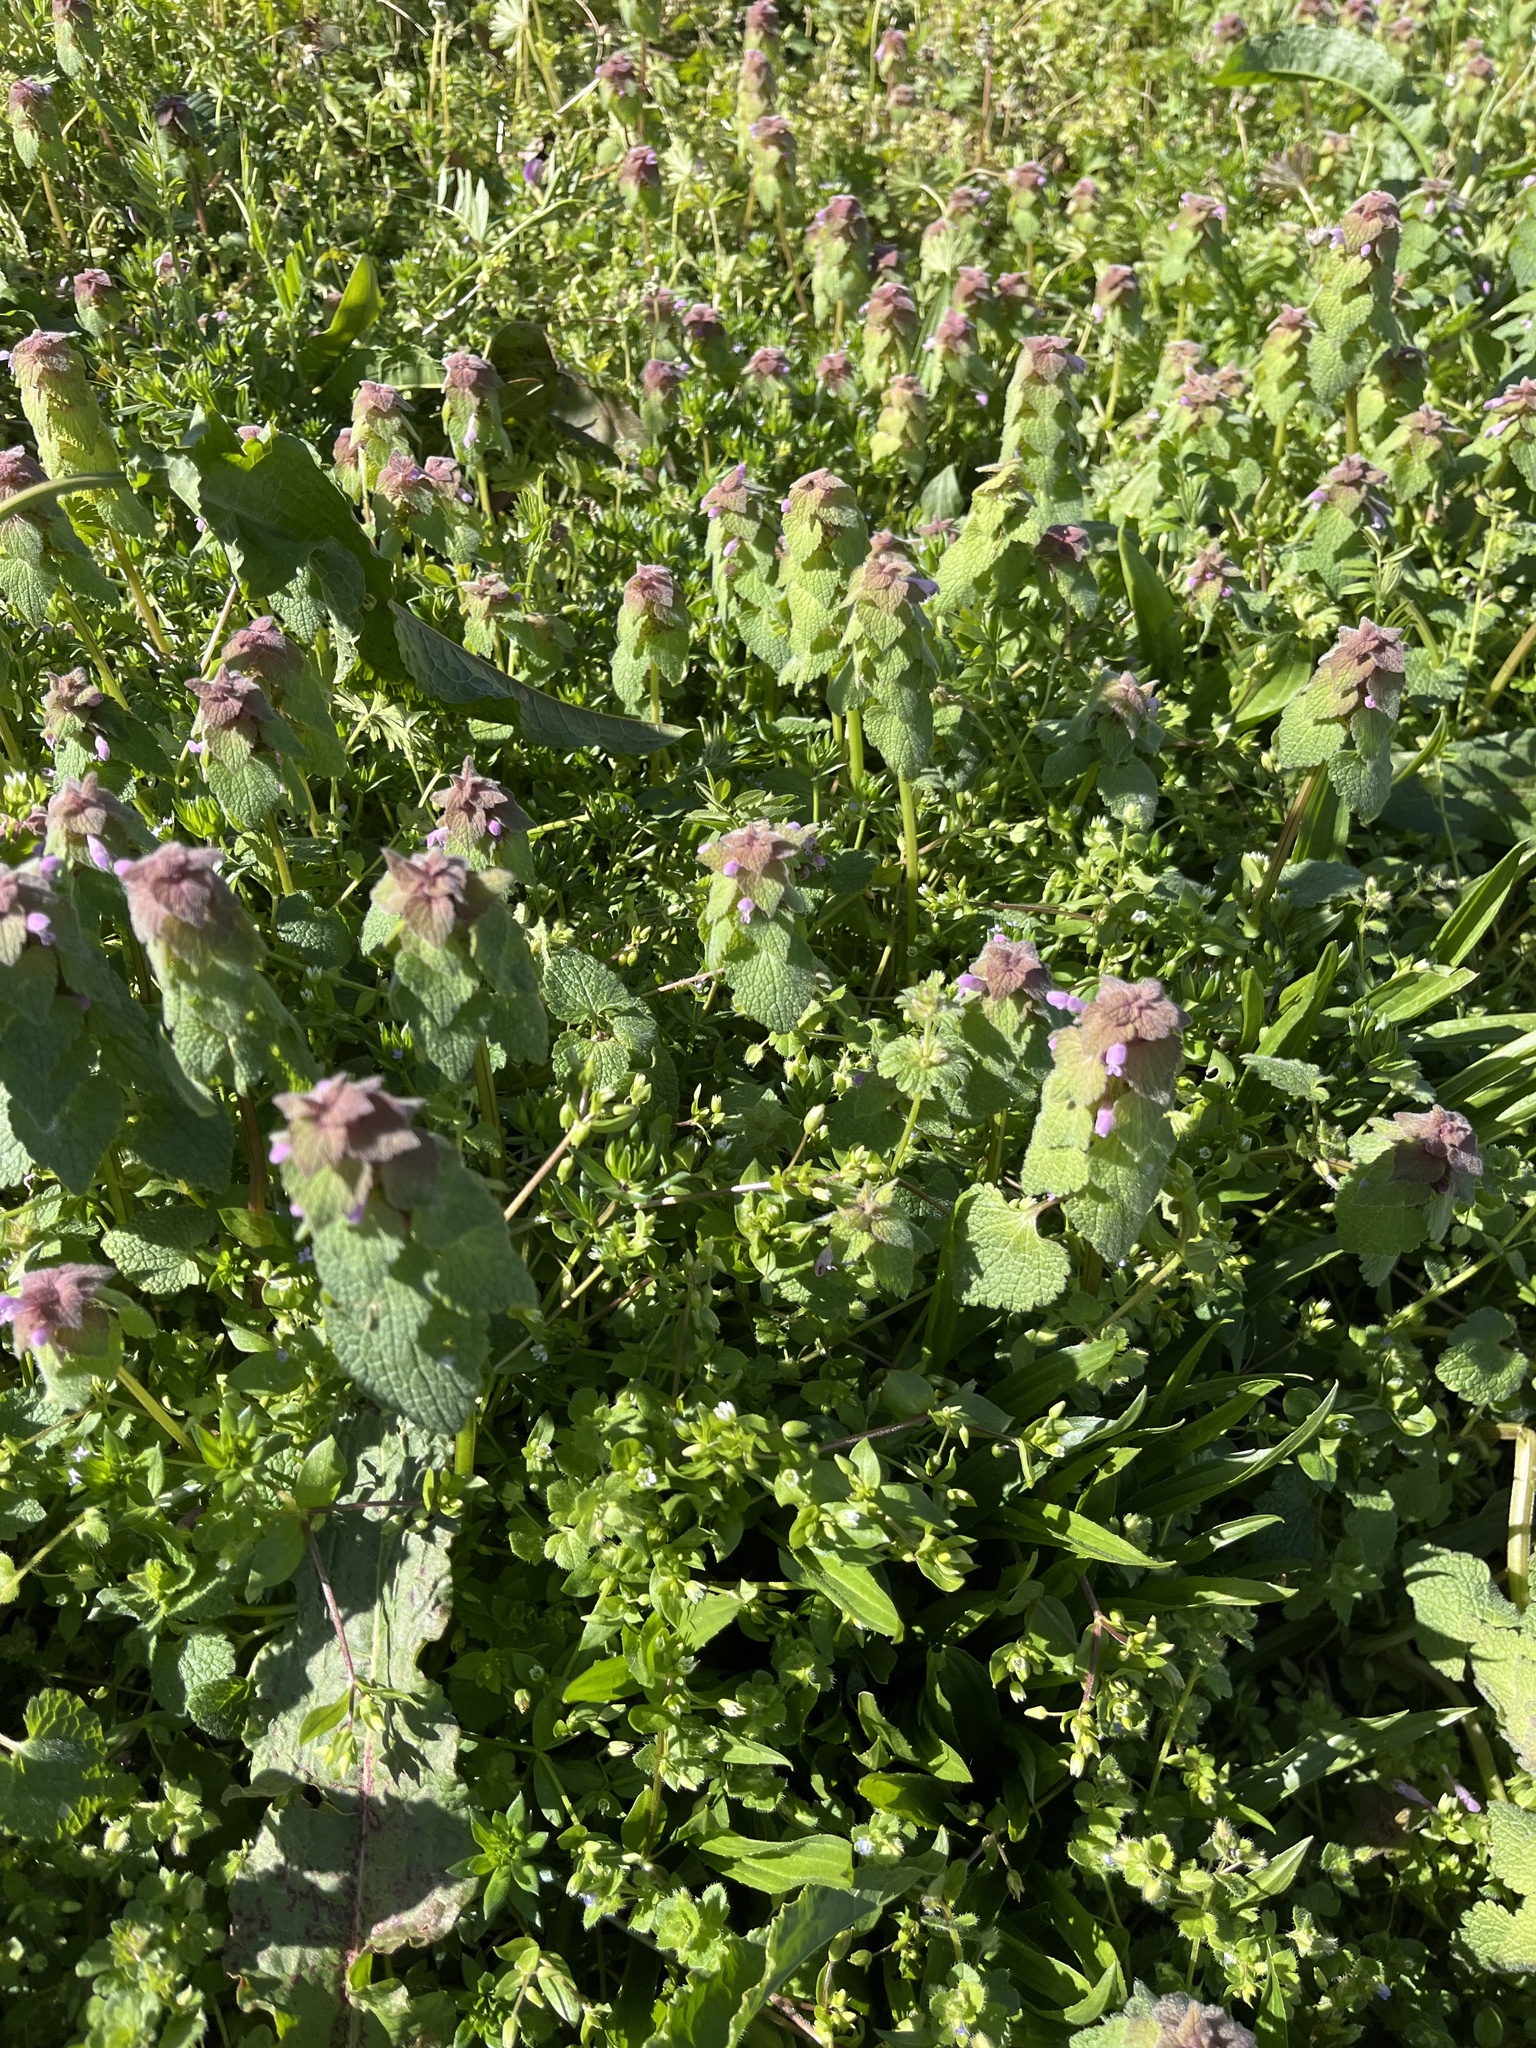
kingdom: Plantae
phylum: Tracheophyta
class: Magnoliopsida
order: Lamiales
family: Lamiaceae
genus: Lamium
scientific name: Lamium purpureum
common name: Red dead-nettle
